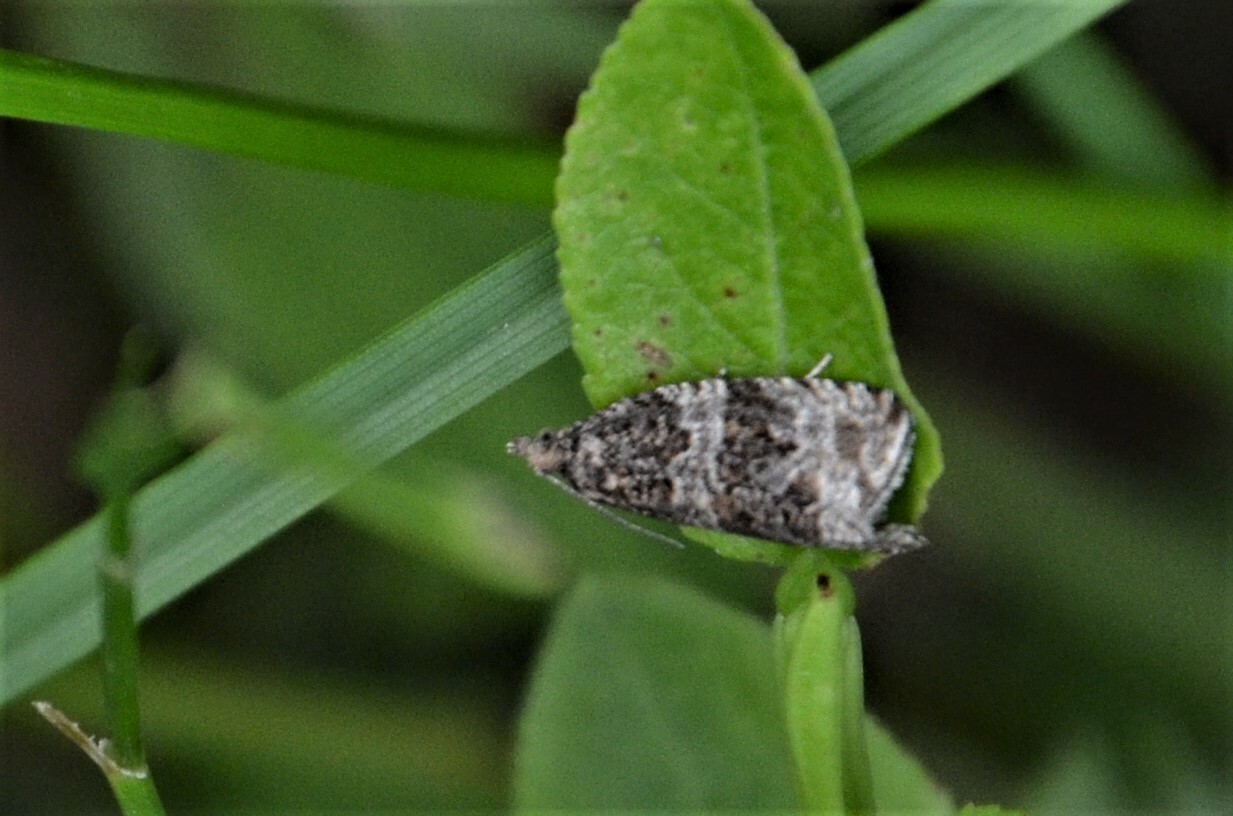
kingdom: Animalia
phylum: Arthropoda
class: Insecta
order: Lepidoptera
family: Tortricidae
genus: Syricoris
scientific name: Syricoris lacunana
